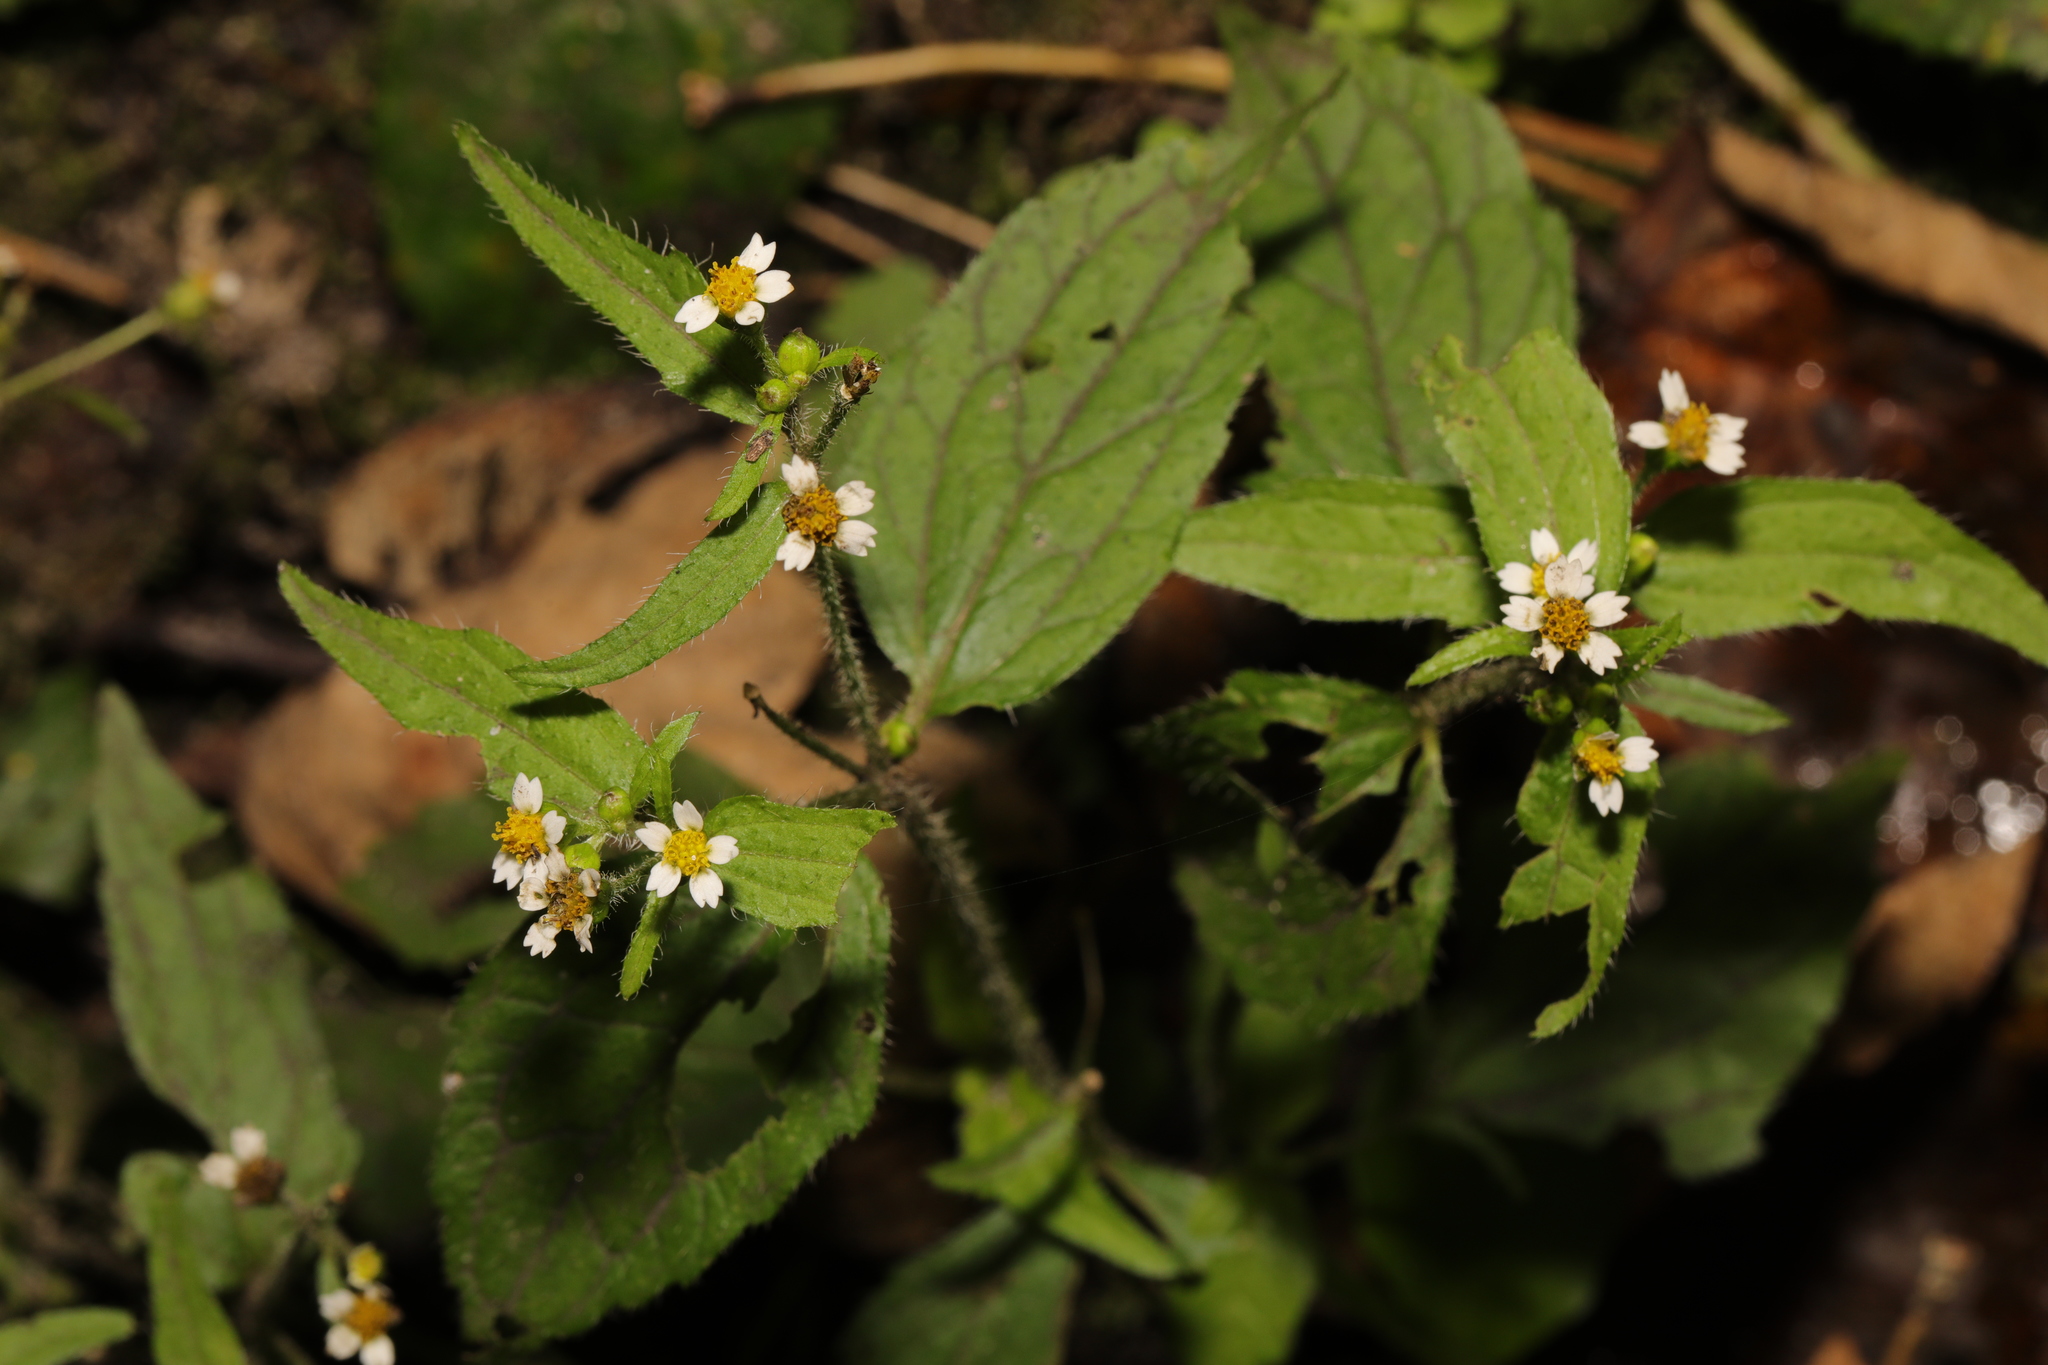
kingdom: Plantae
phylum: Tracheophyta
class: Magnoliopsida
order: Asterales
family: Asteraceae
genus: Galinsoga
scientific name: Galinsoga quadriradiata
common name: Shaggy soldier
